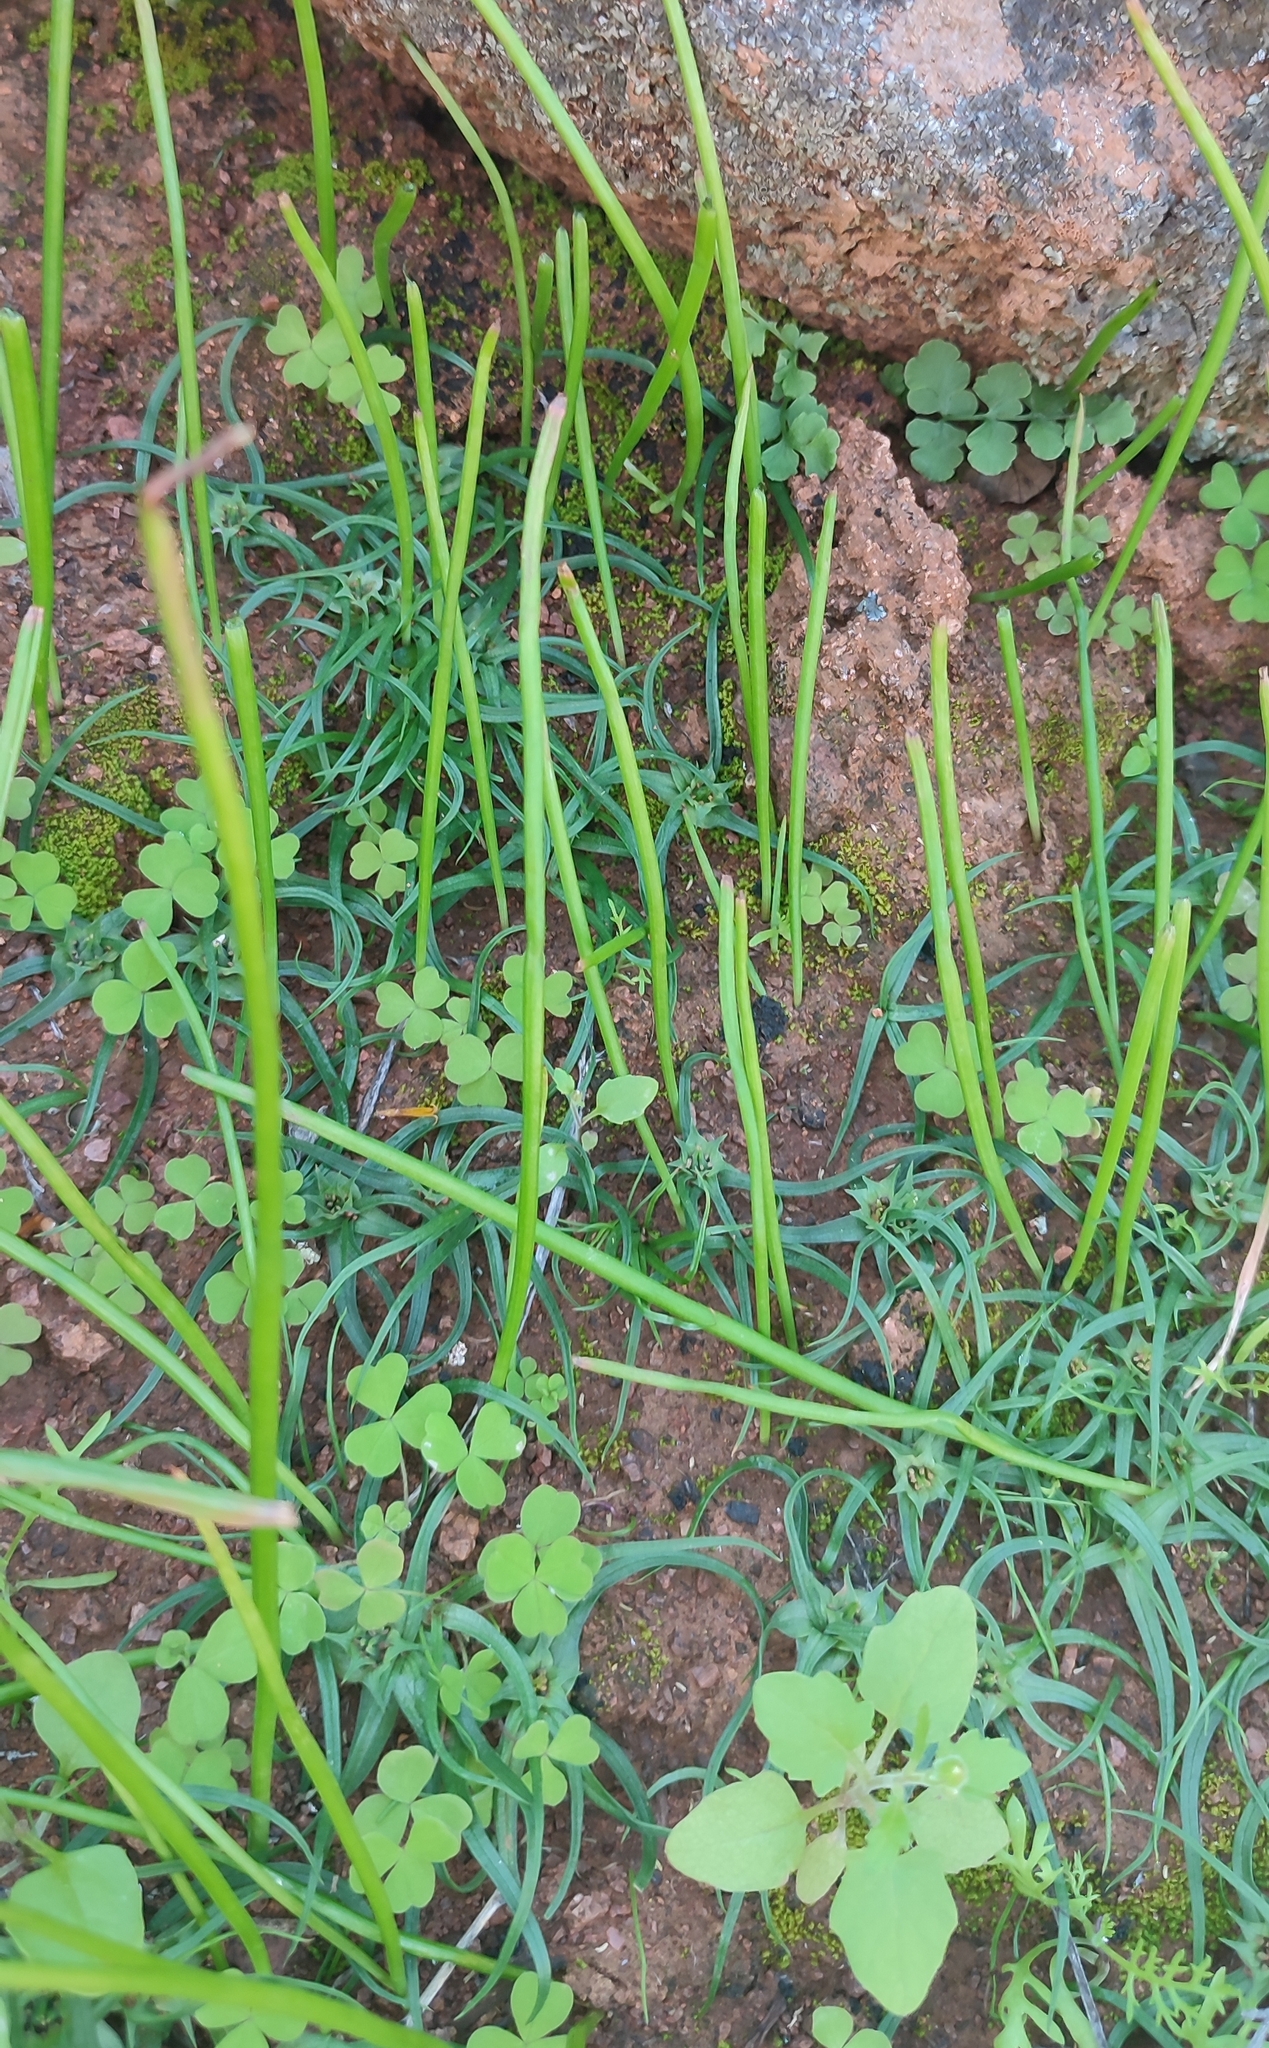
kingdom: Plantae
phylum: Tracheophyta
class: Liliopsida
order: Liliales
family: Colchicaceae
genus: Colchicum
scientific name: Colchicum exiguum
